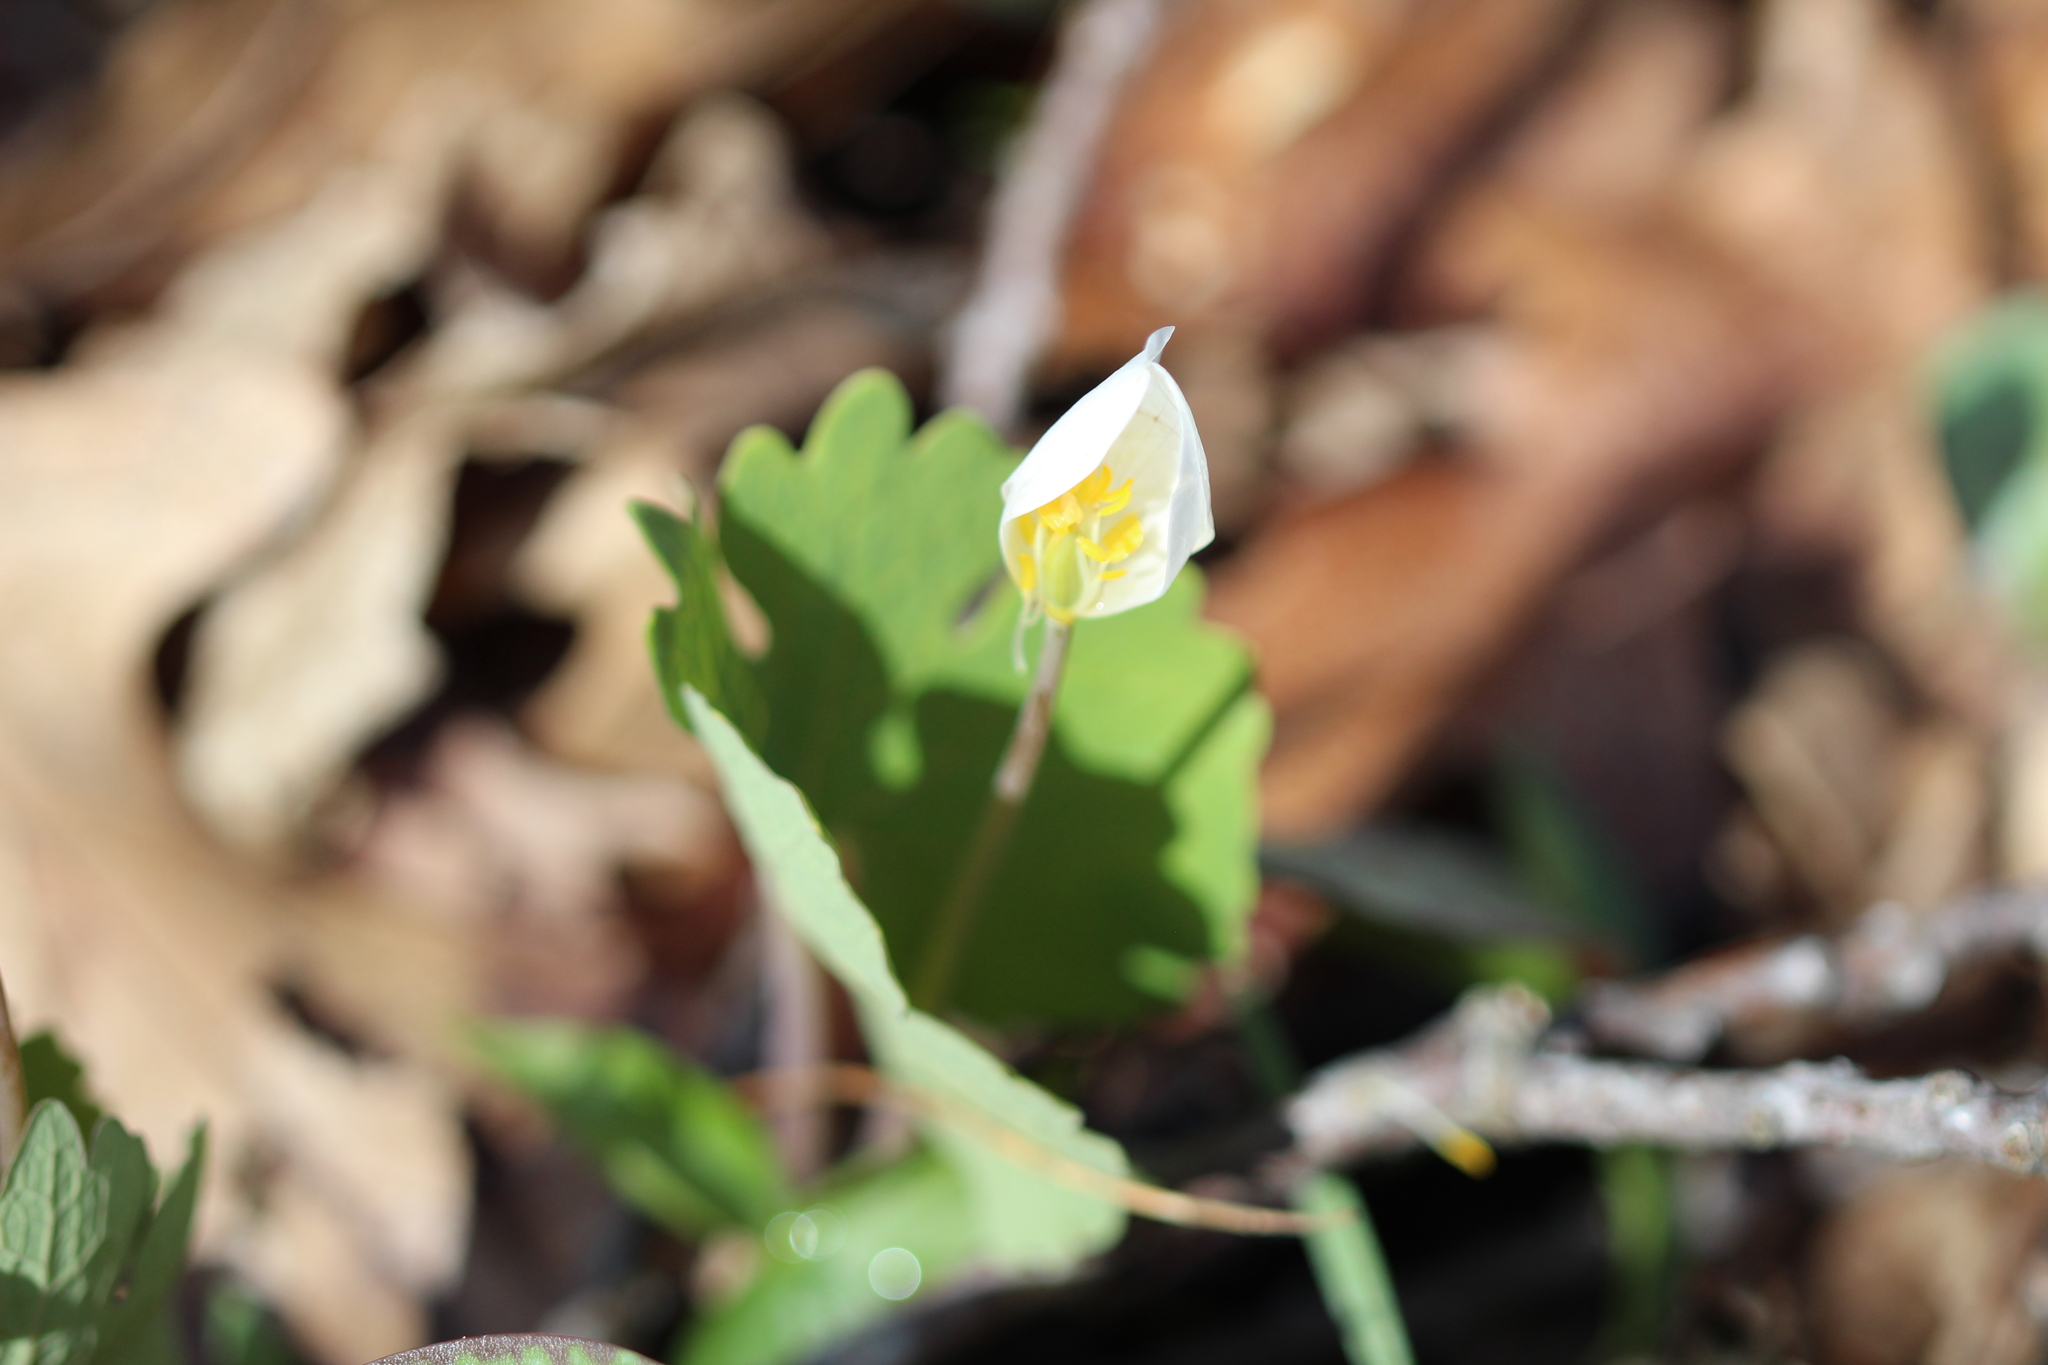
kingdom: Plantae
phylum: Tracheophyta
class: Magnoliopsida
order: Ranunculales
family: Papaveraceae
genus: Sanguinaria
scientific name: Sanguinaria canadensis
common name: Bloodroot
